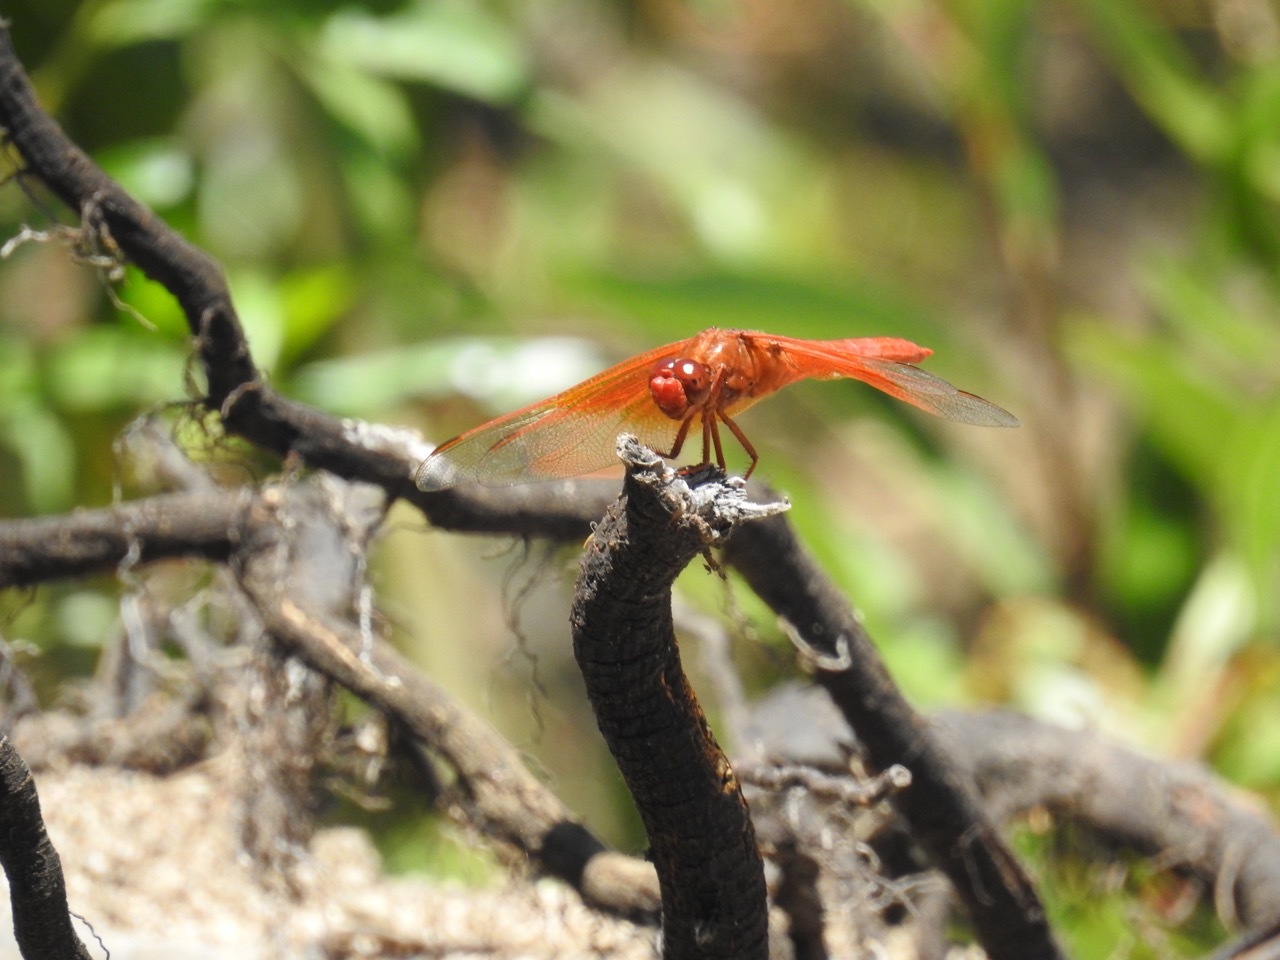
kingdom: Animalia
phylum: Arthropoda
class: Insecta
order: Odonata
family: Libellulidae
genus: Libellula
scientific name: Libellula saturata
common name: Flame skimmer
